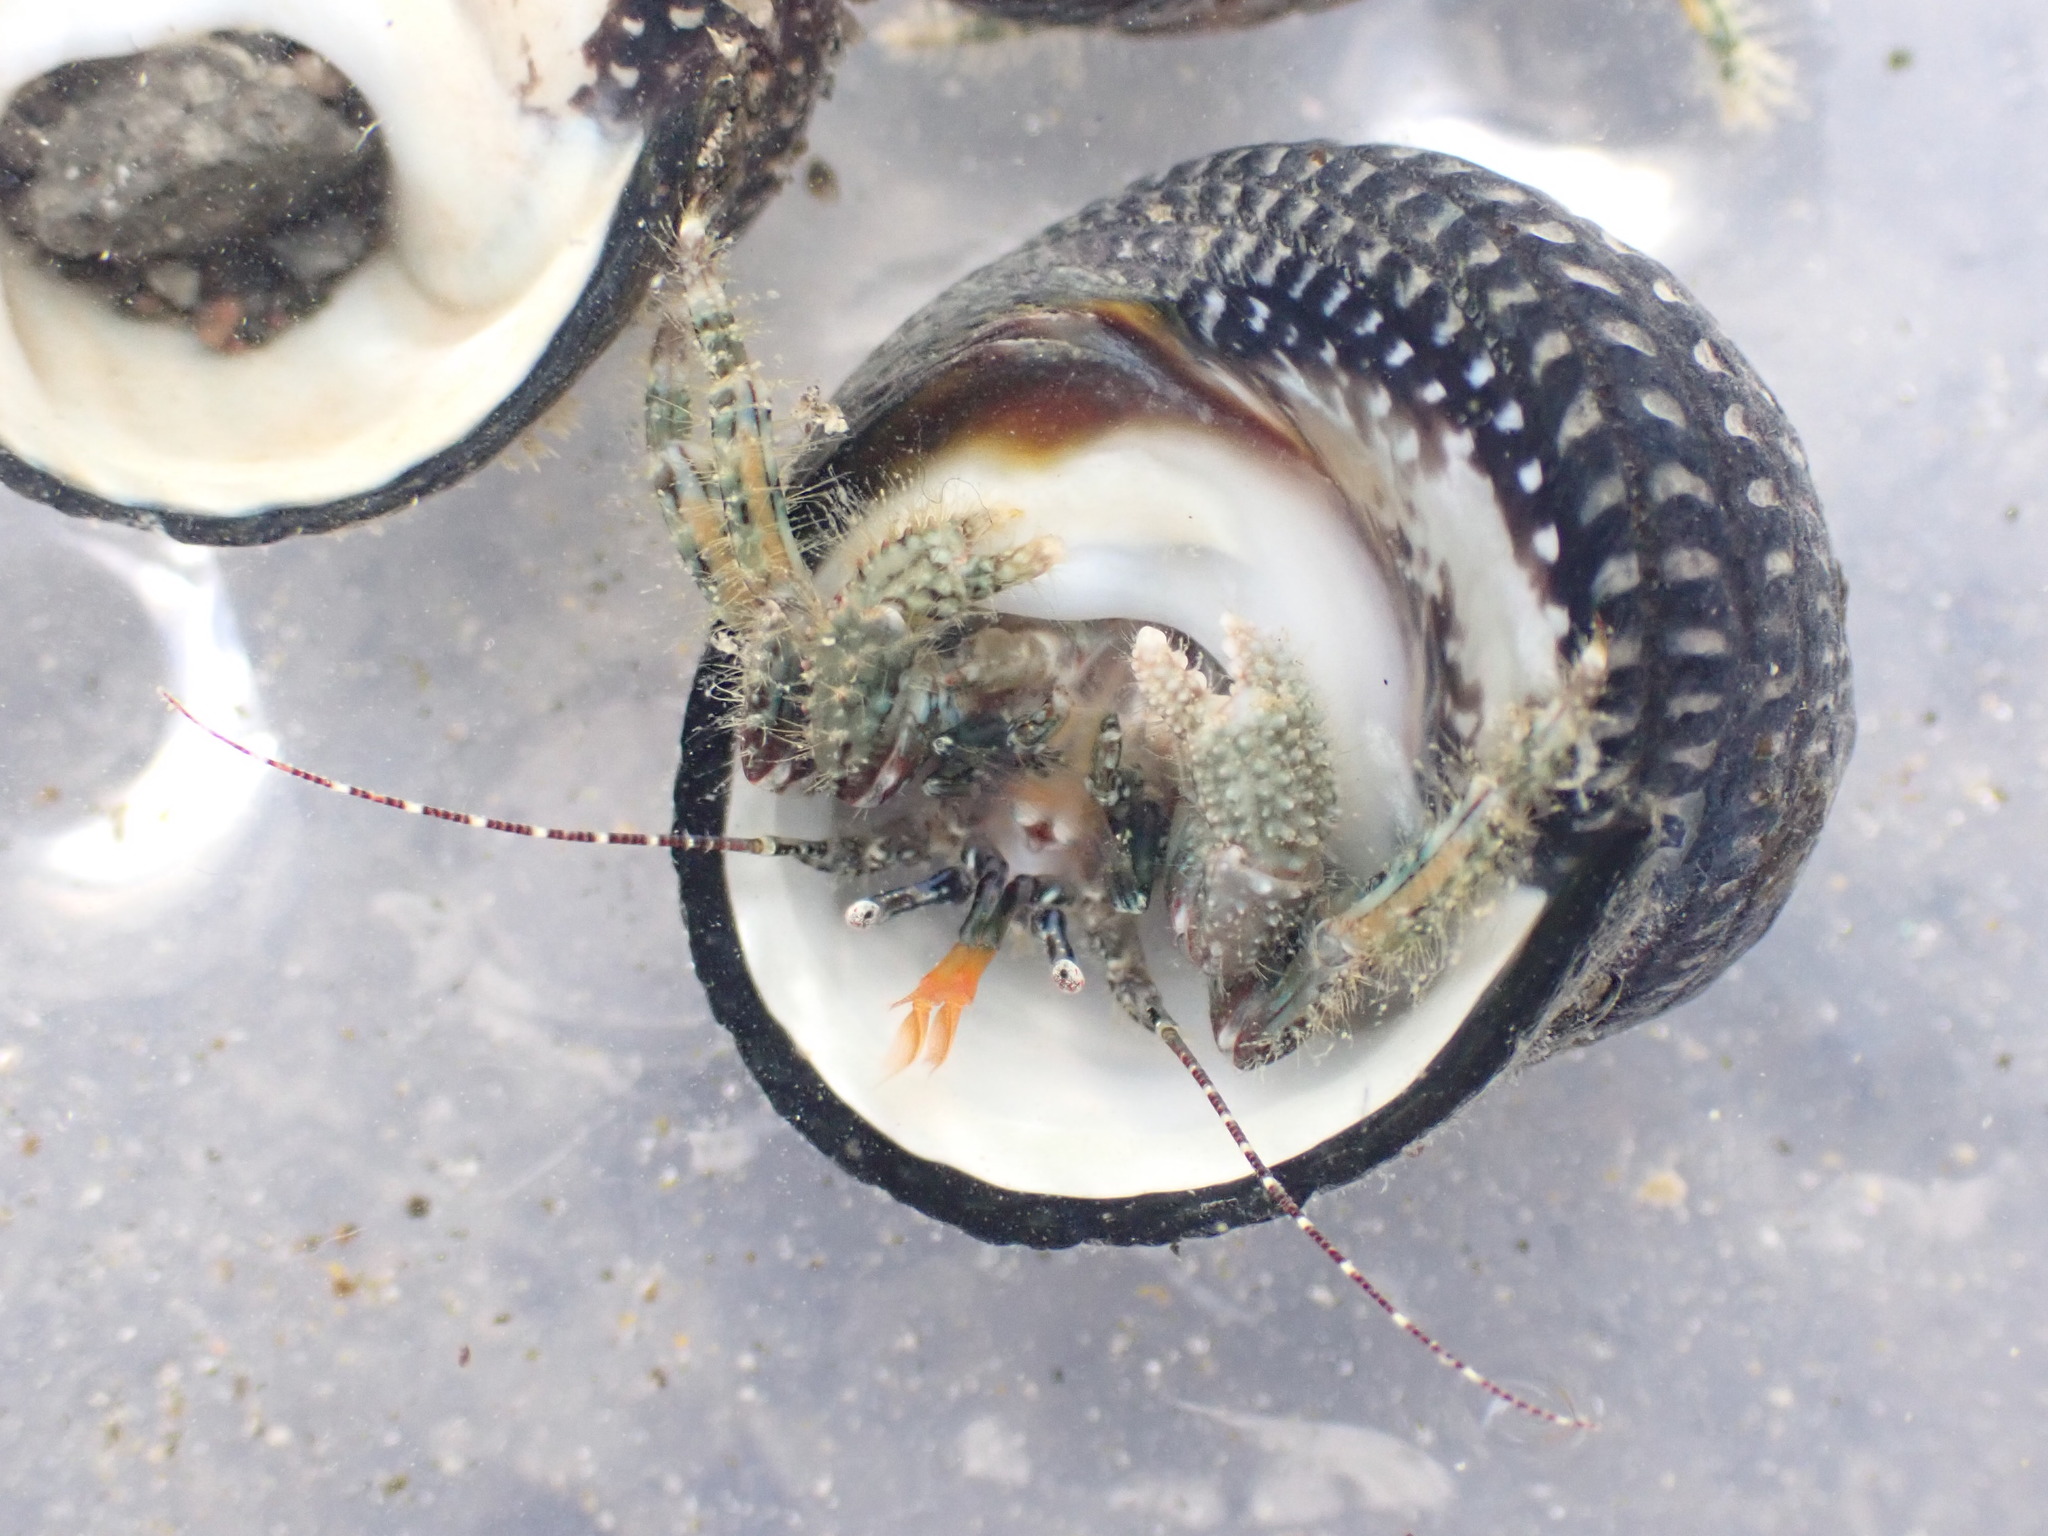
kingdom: Animalia
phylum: Arthropoda
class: Malacostraca
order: Decapoda
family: Paguridae
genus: Pagurus
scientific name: Pagurus traversi
